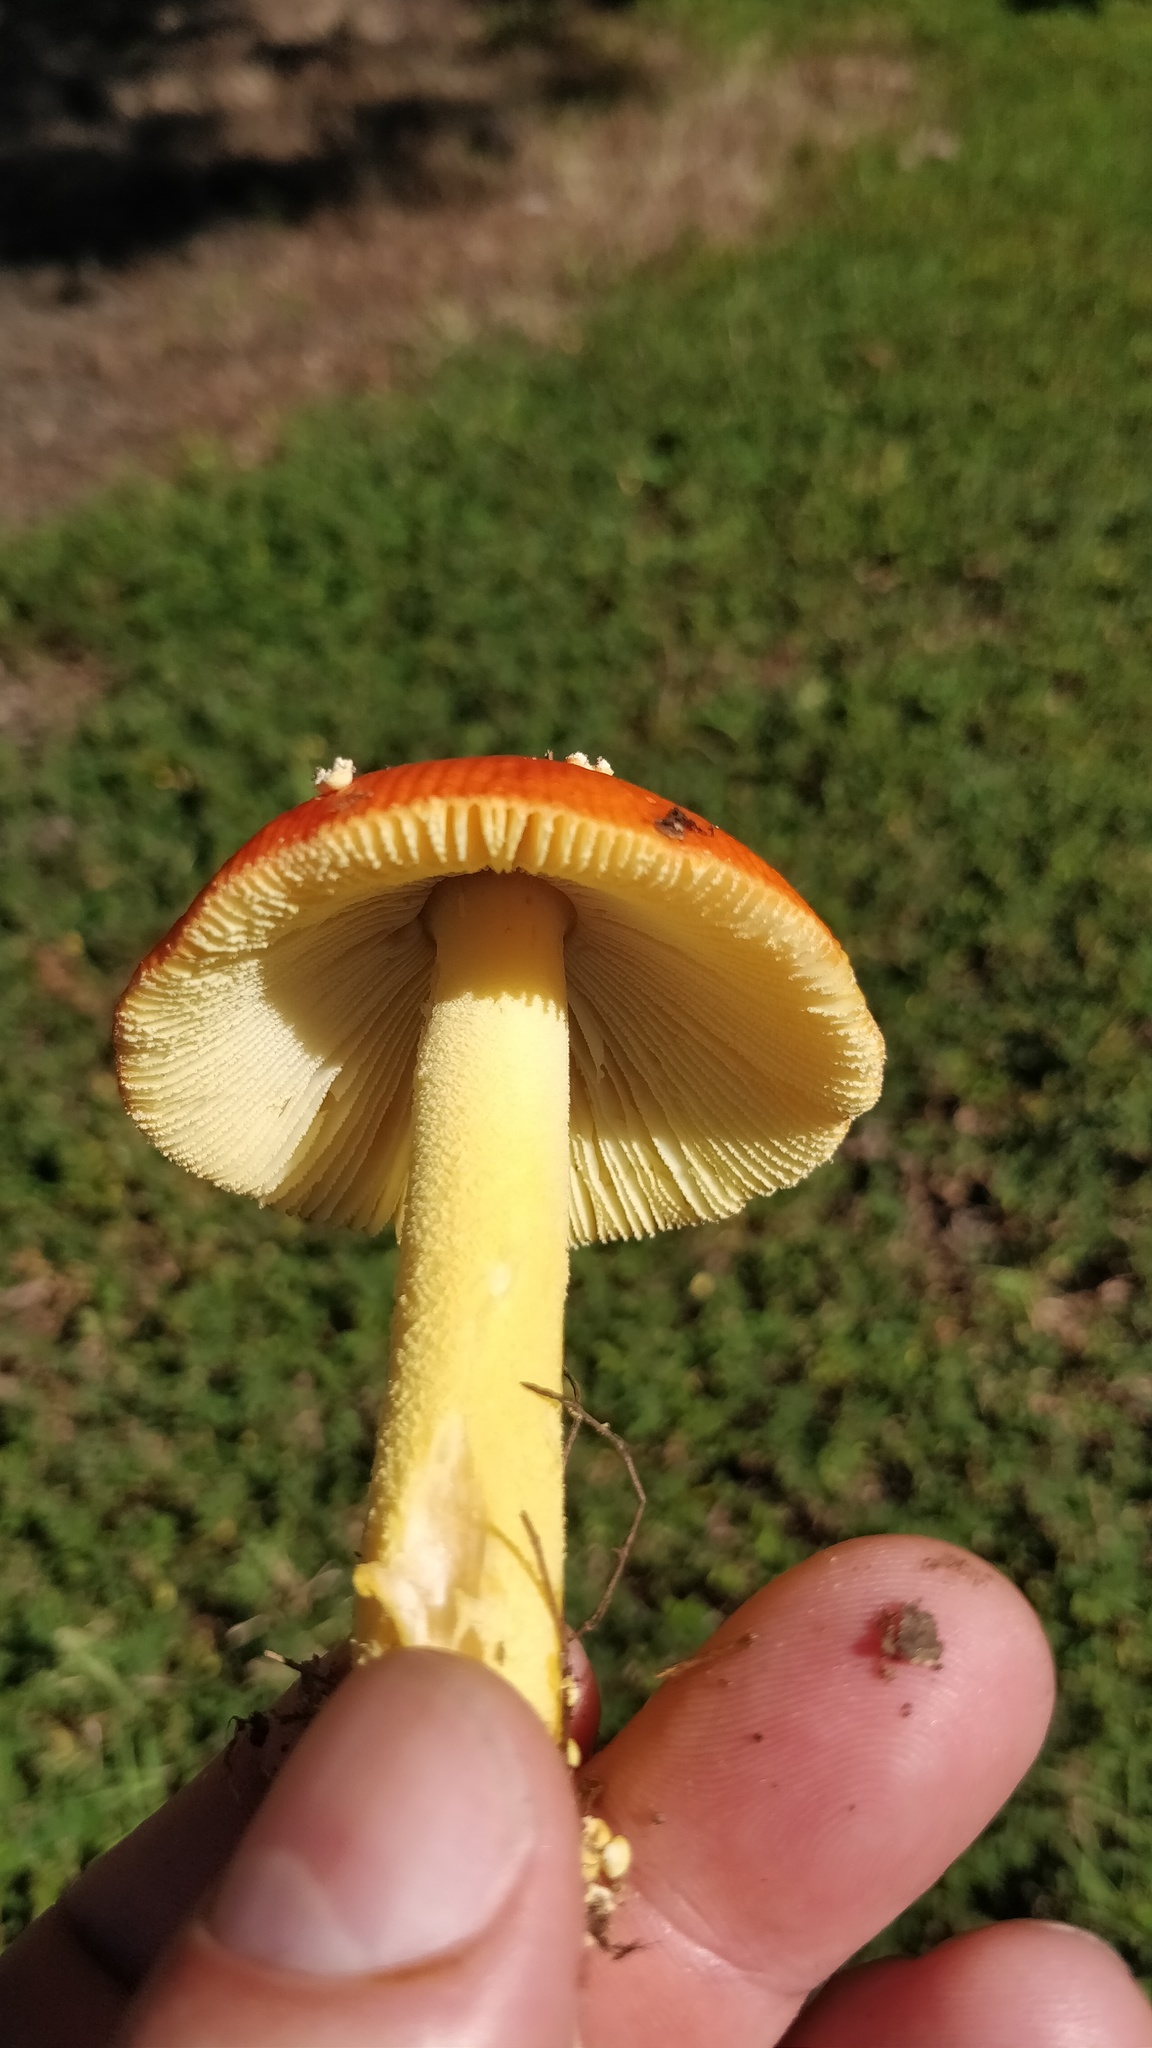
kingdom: Fungi
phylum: Basidiomycota
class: Agaricomycetes
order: Agaricales
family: Amanitaceae
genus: Amanita
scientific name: Amanita parcivolvata
